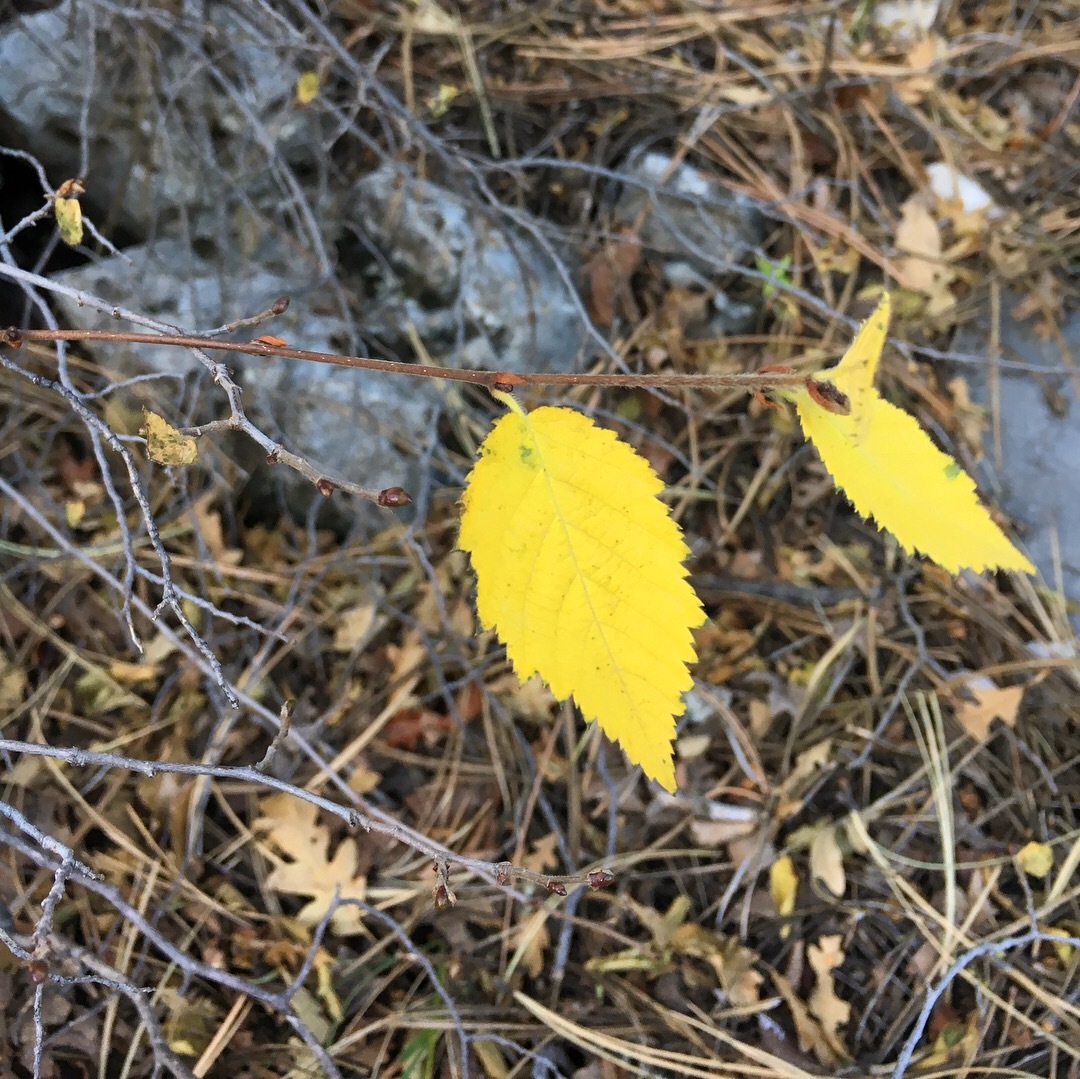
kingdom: Plantae
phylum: Tracheophyta
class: Magnoliopsida
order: Fagales
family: Betulaceae
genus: Ostrya
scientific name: Ostrya knowltonii
